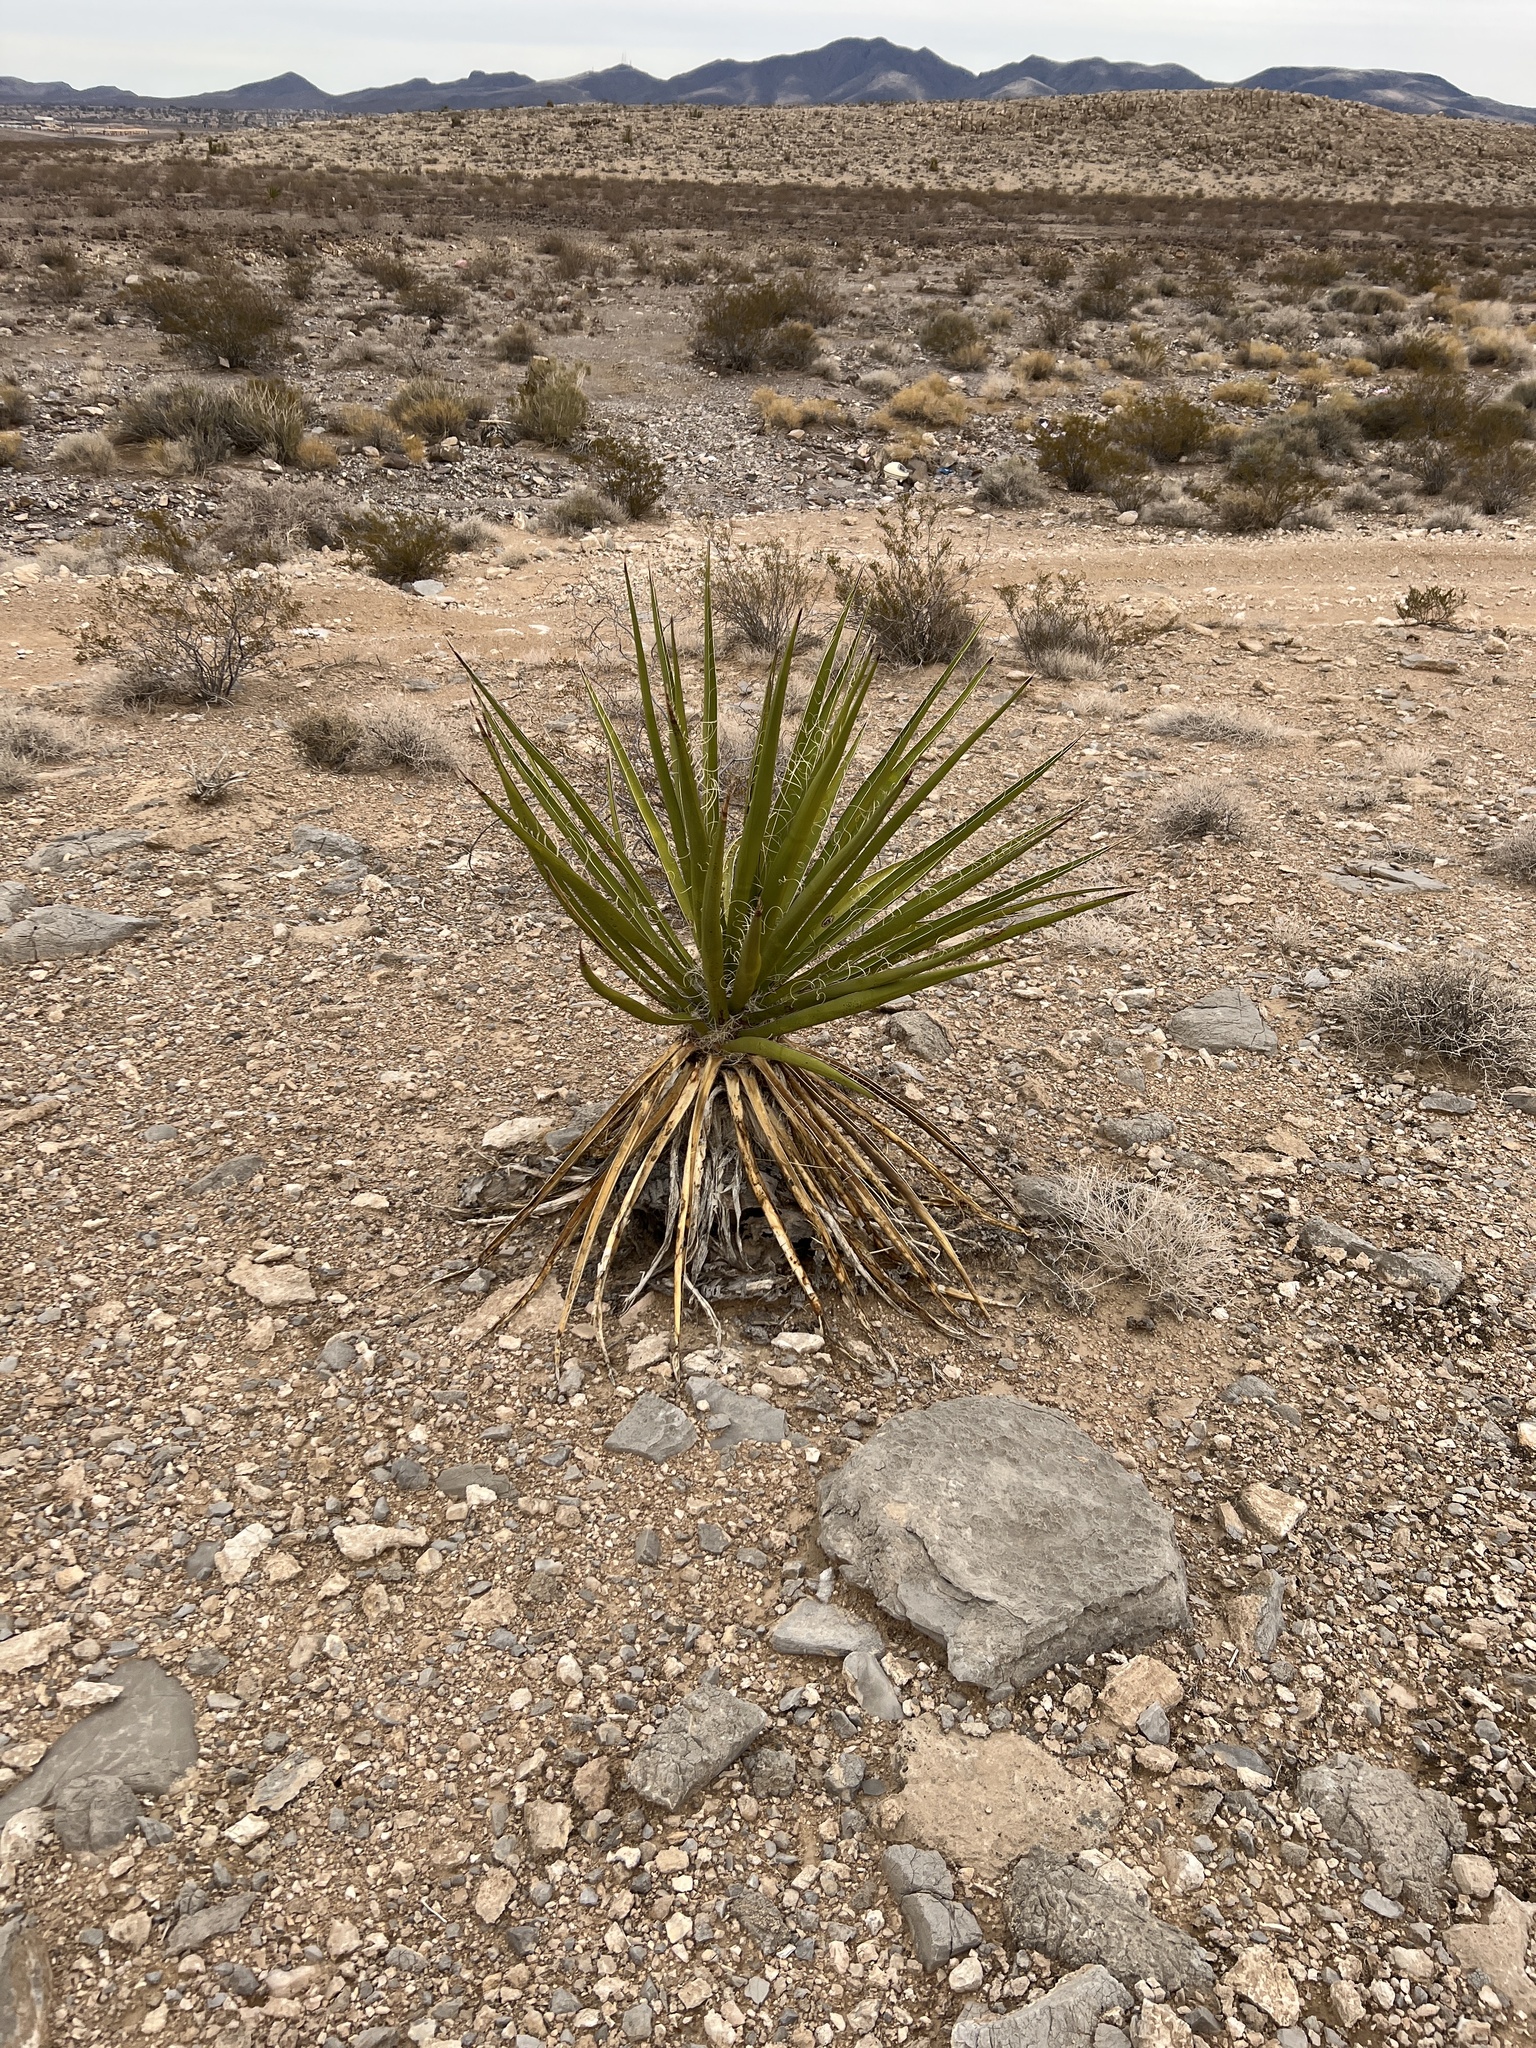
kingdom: Plantae
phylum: Tracheophyta
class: Liliopsida
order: Asparagales
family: Asparagaceae
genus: Yucca
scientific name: Yucca schidigera
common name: Mojave yucca
